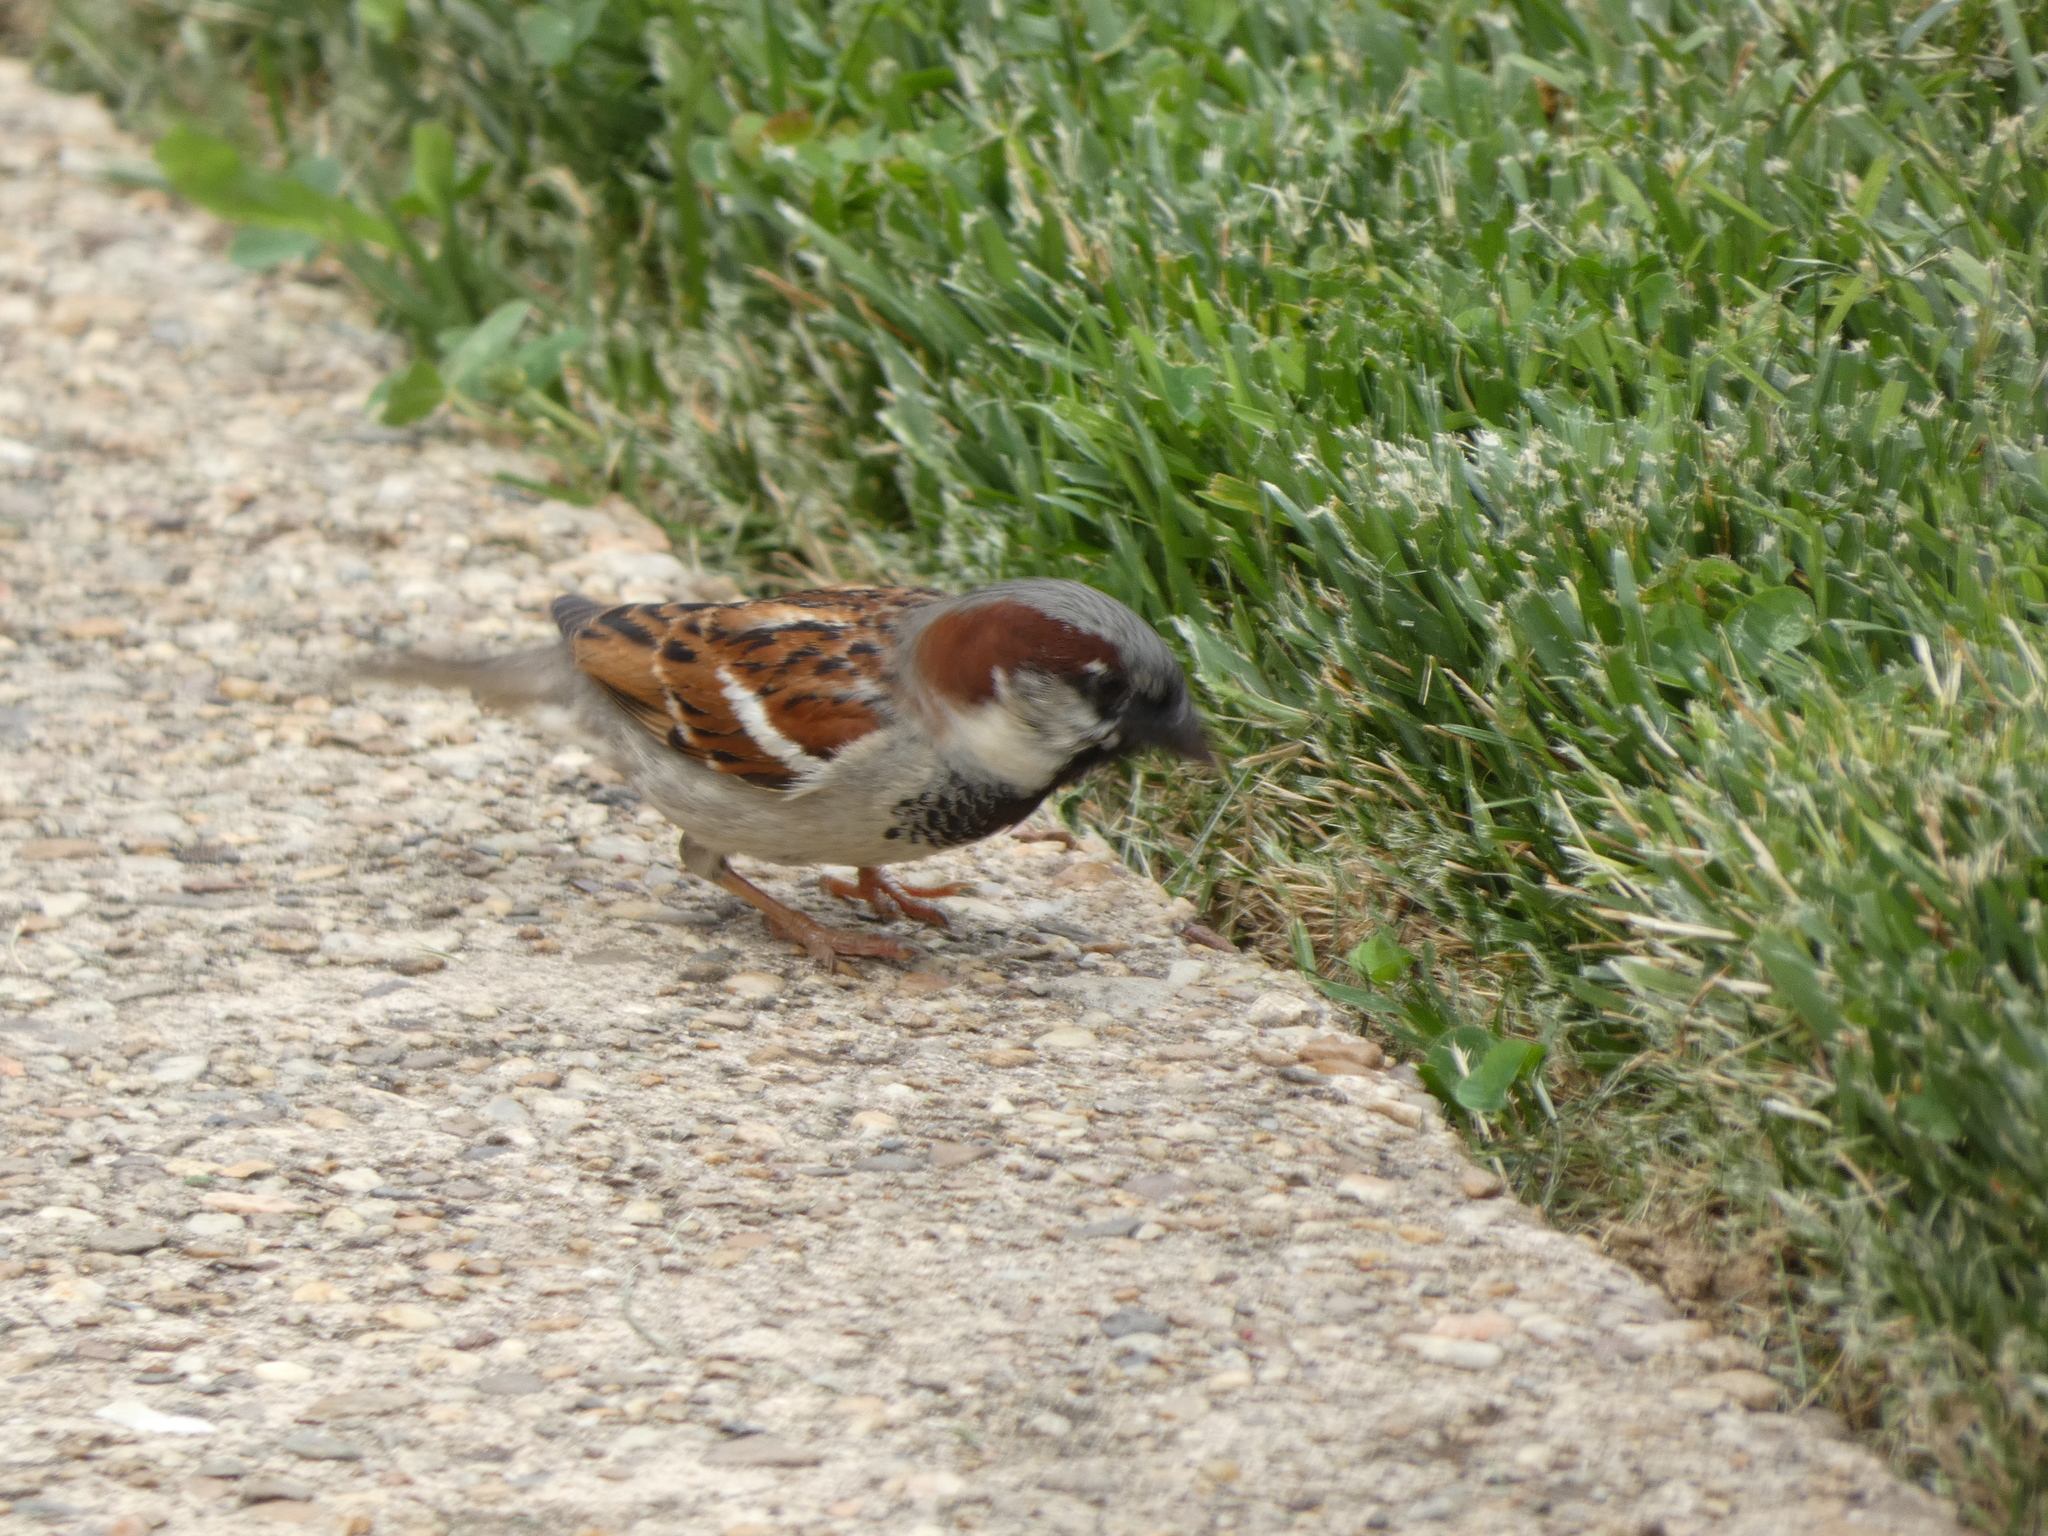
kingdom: Animalia
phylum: Chordata
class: Aves
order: Passeriformes
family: Passeridae
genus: Passer
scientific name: Passer domesticus
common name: House sparrow
